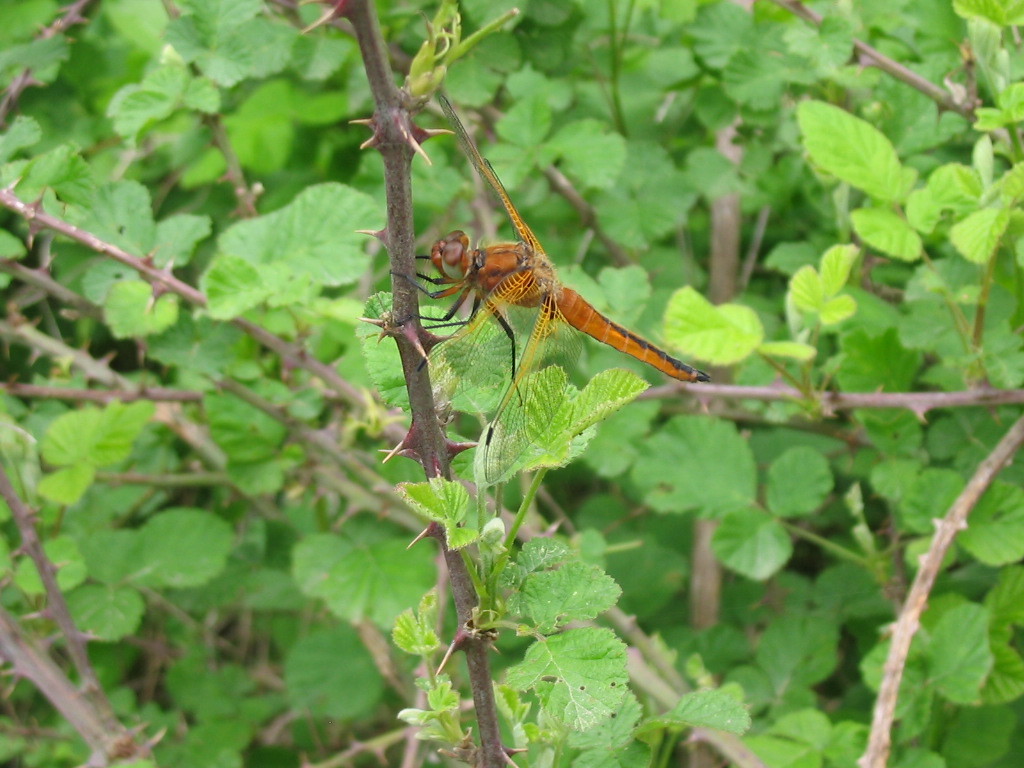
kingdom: Animalia
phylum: Arthropoda
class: Insecta
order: Odonata
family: Libellulidae
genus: Libellula
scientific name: Libellula fulva
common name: Blue chaser
